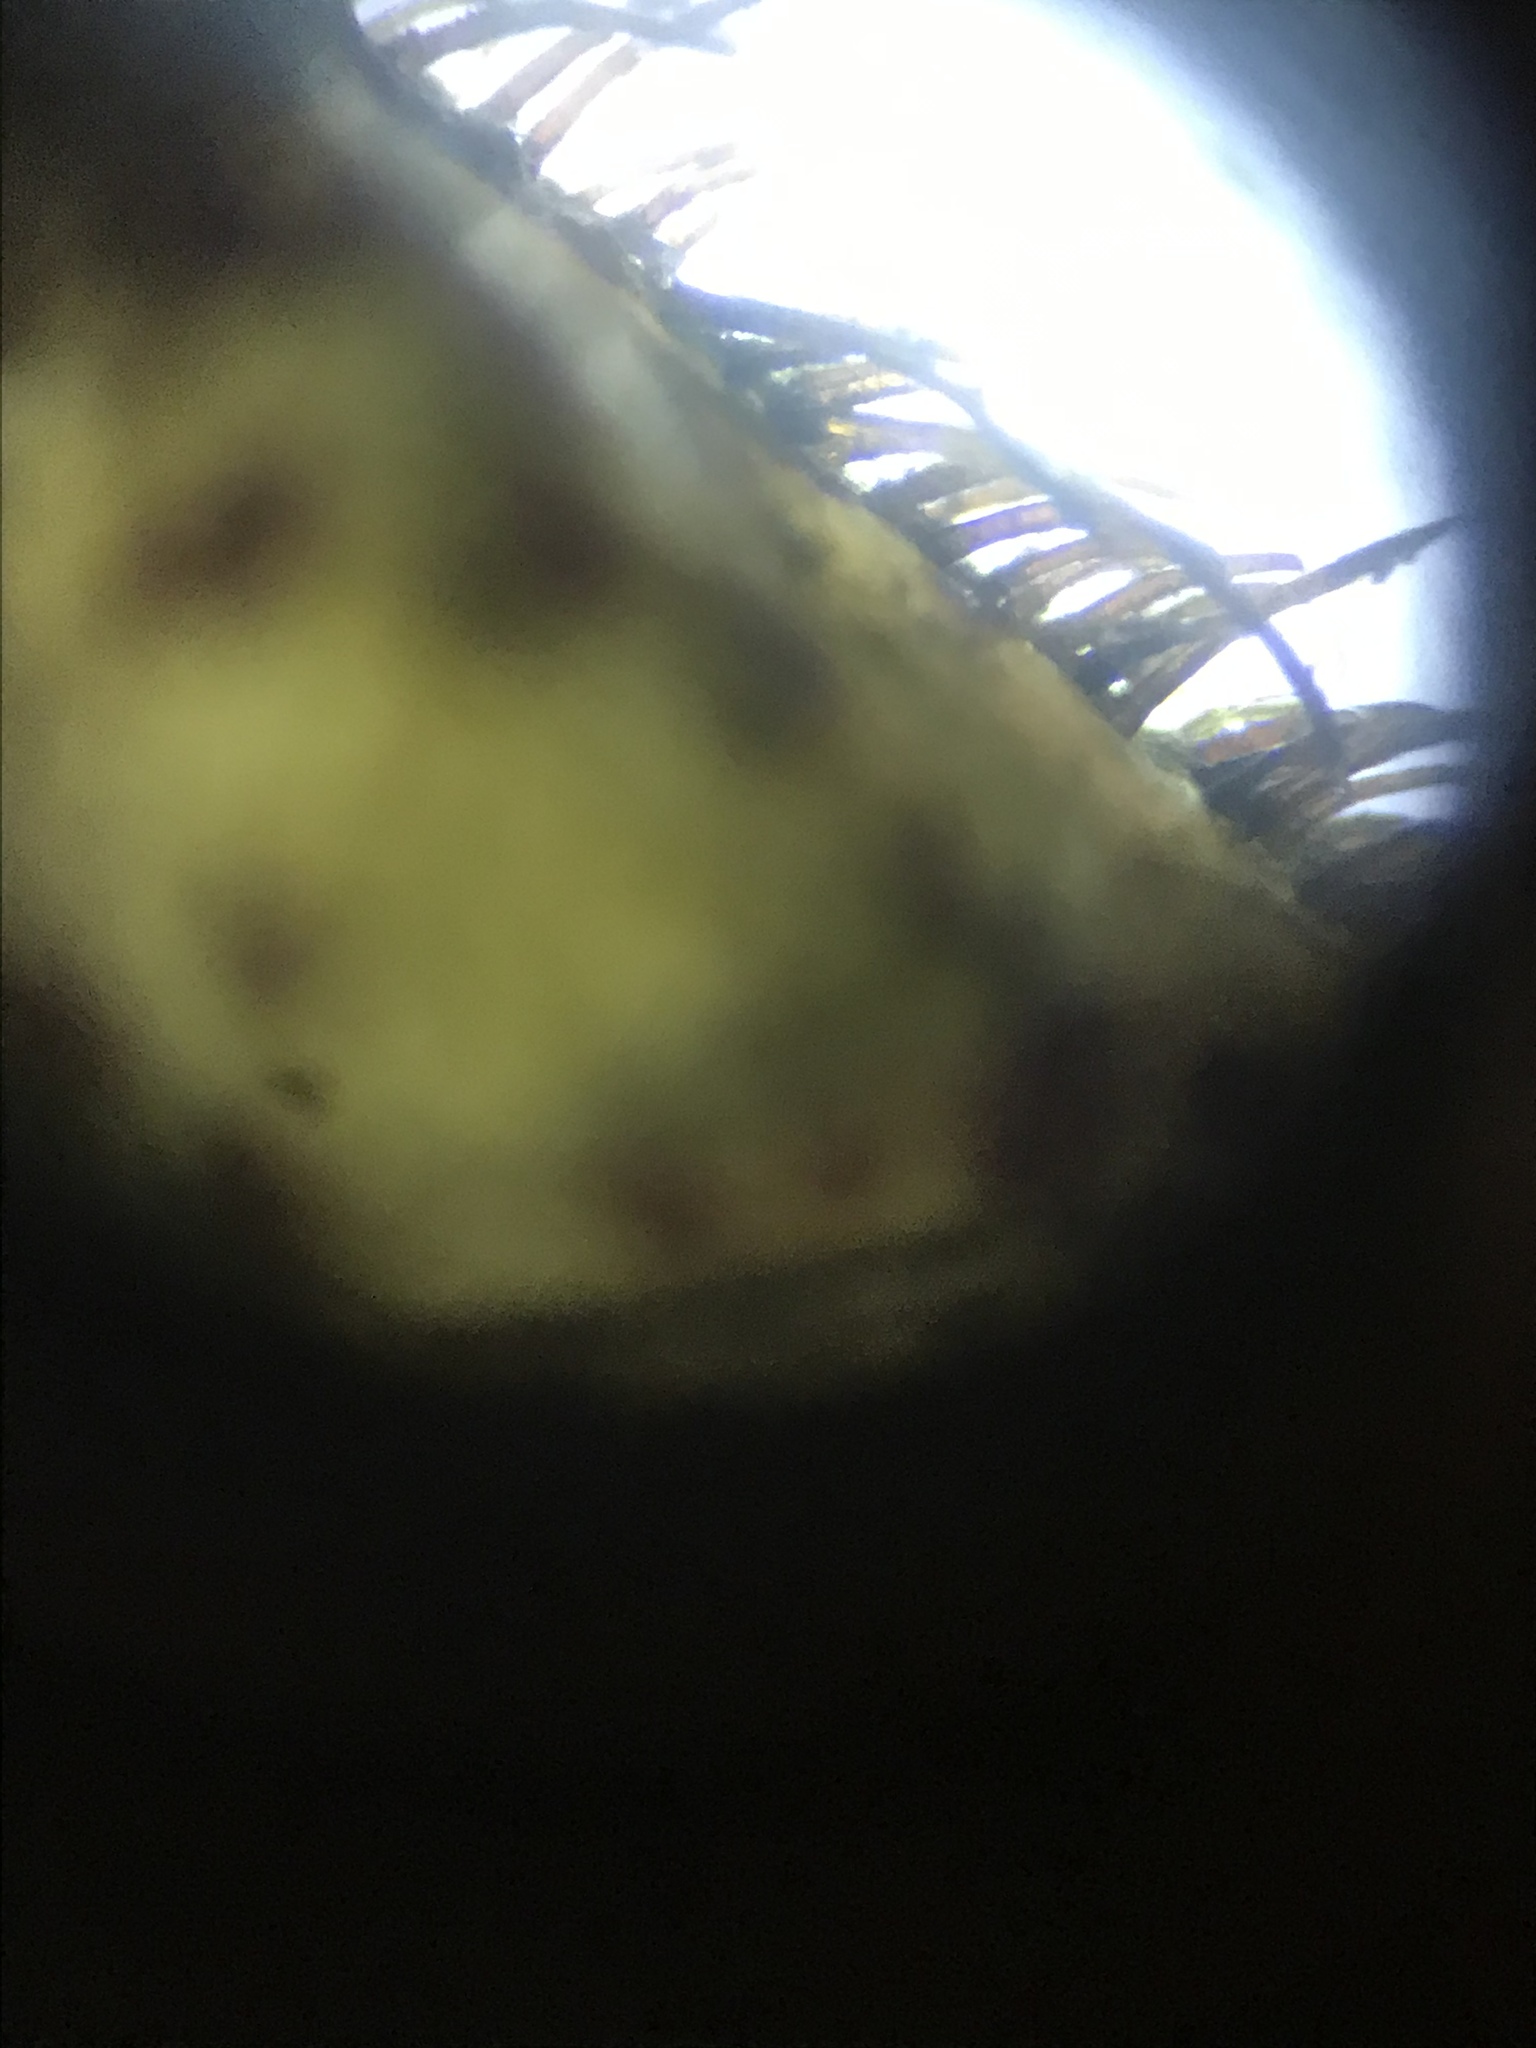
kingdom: Animalia
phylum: Arthropoda
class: Malacostraca
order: Decapoda
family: Varunidae
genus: Hemigrapsus
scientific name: Hemigrapsus oregonensis
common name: Yellow shore crab
